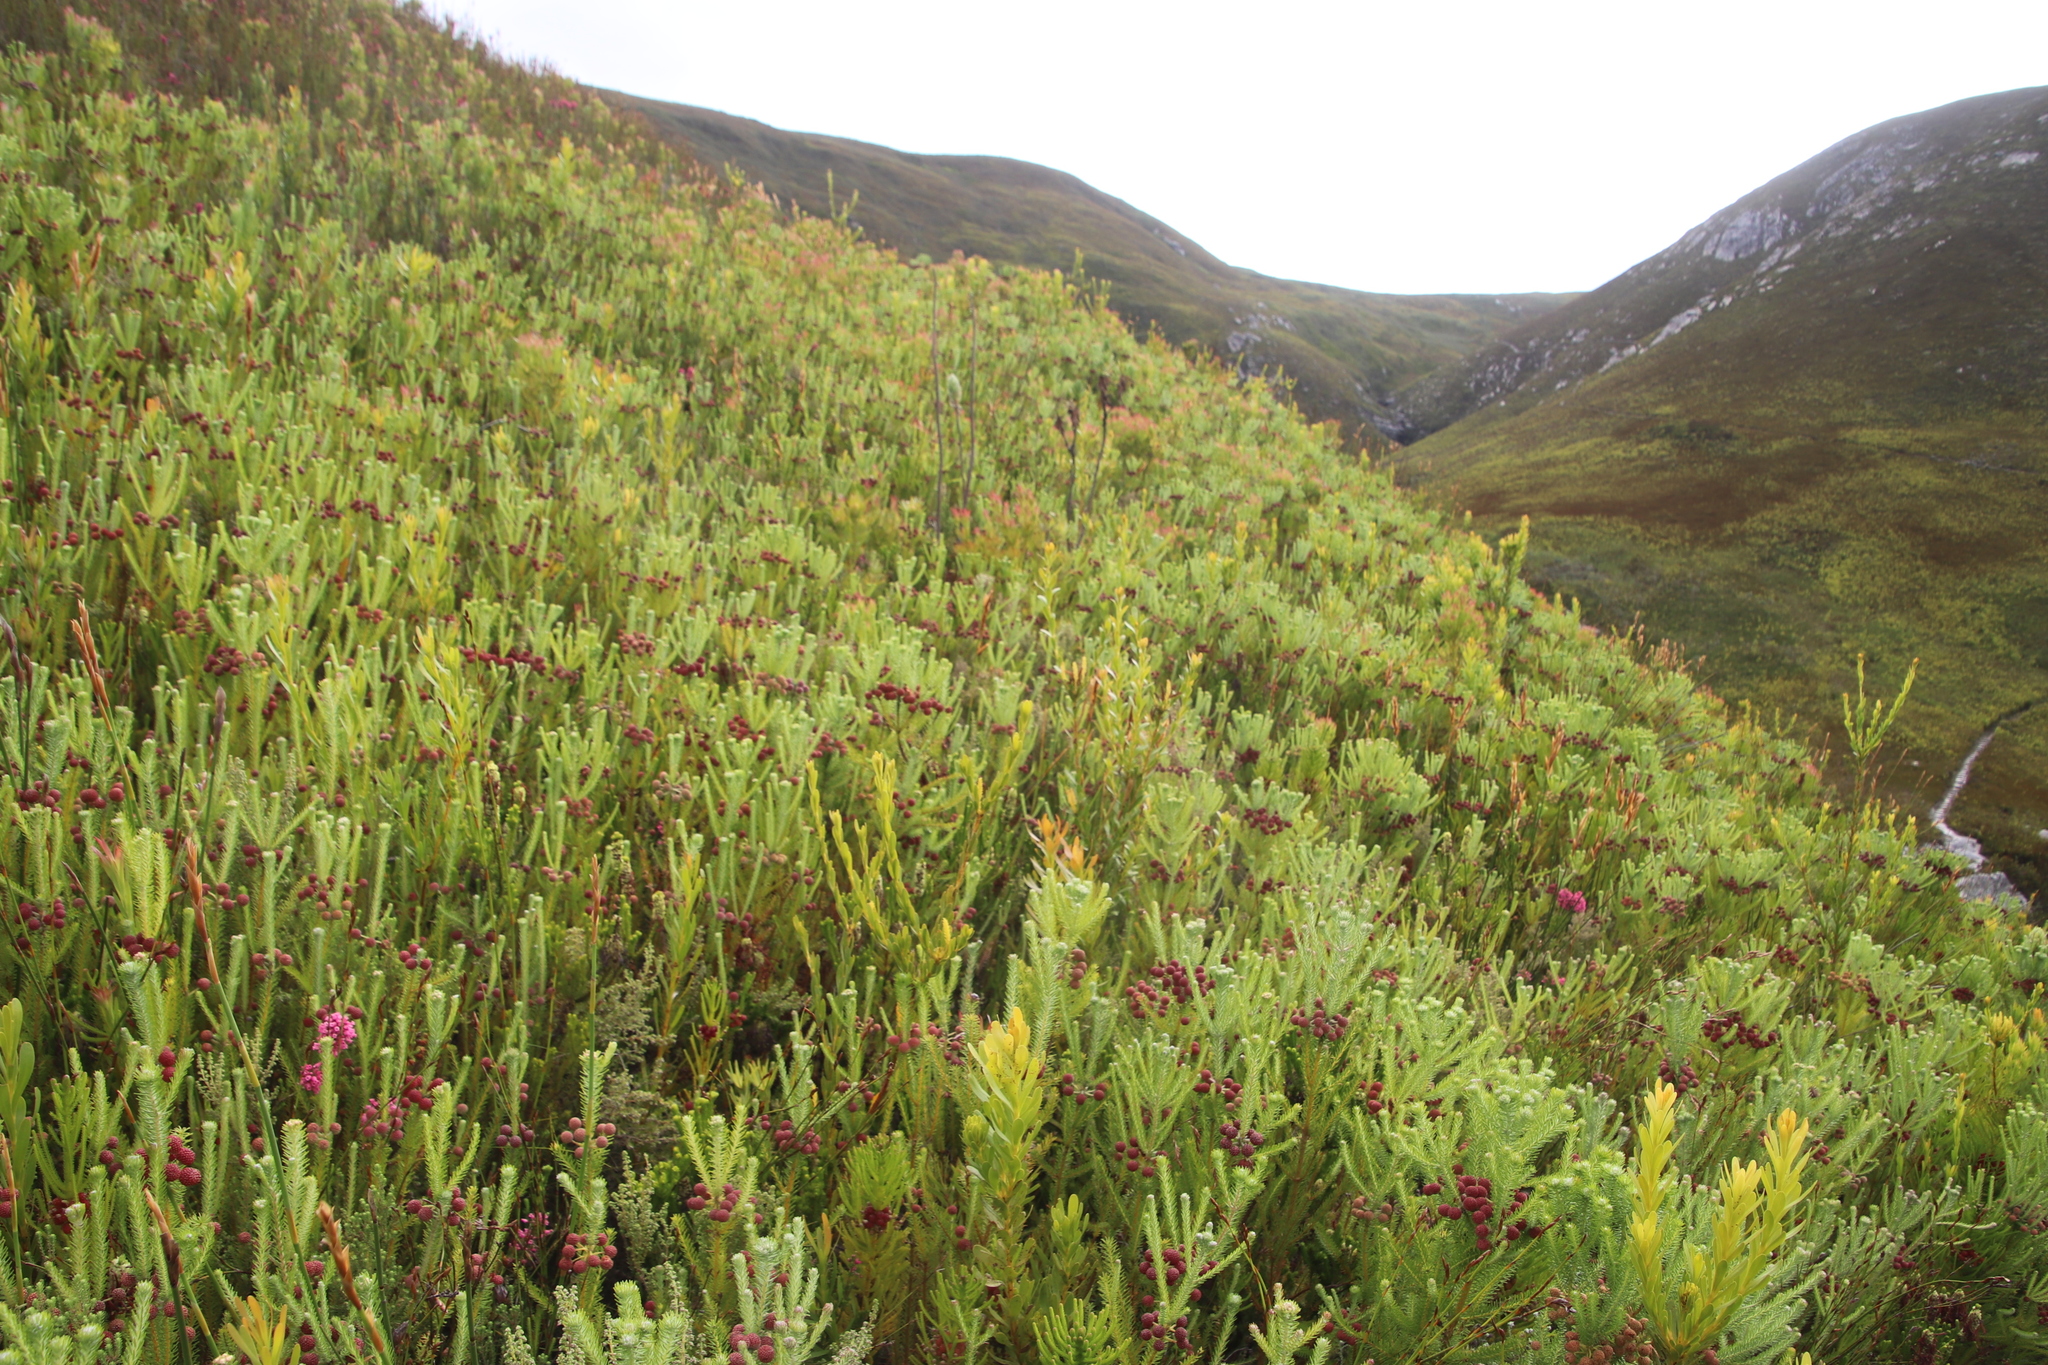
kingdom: Plantae
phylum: Tracheophyta
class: Magnoliopsida
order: Bruniales
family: Bruniaceae
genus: Berzelia
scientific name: Berzelia squarrosa
